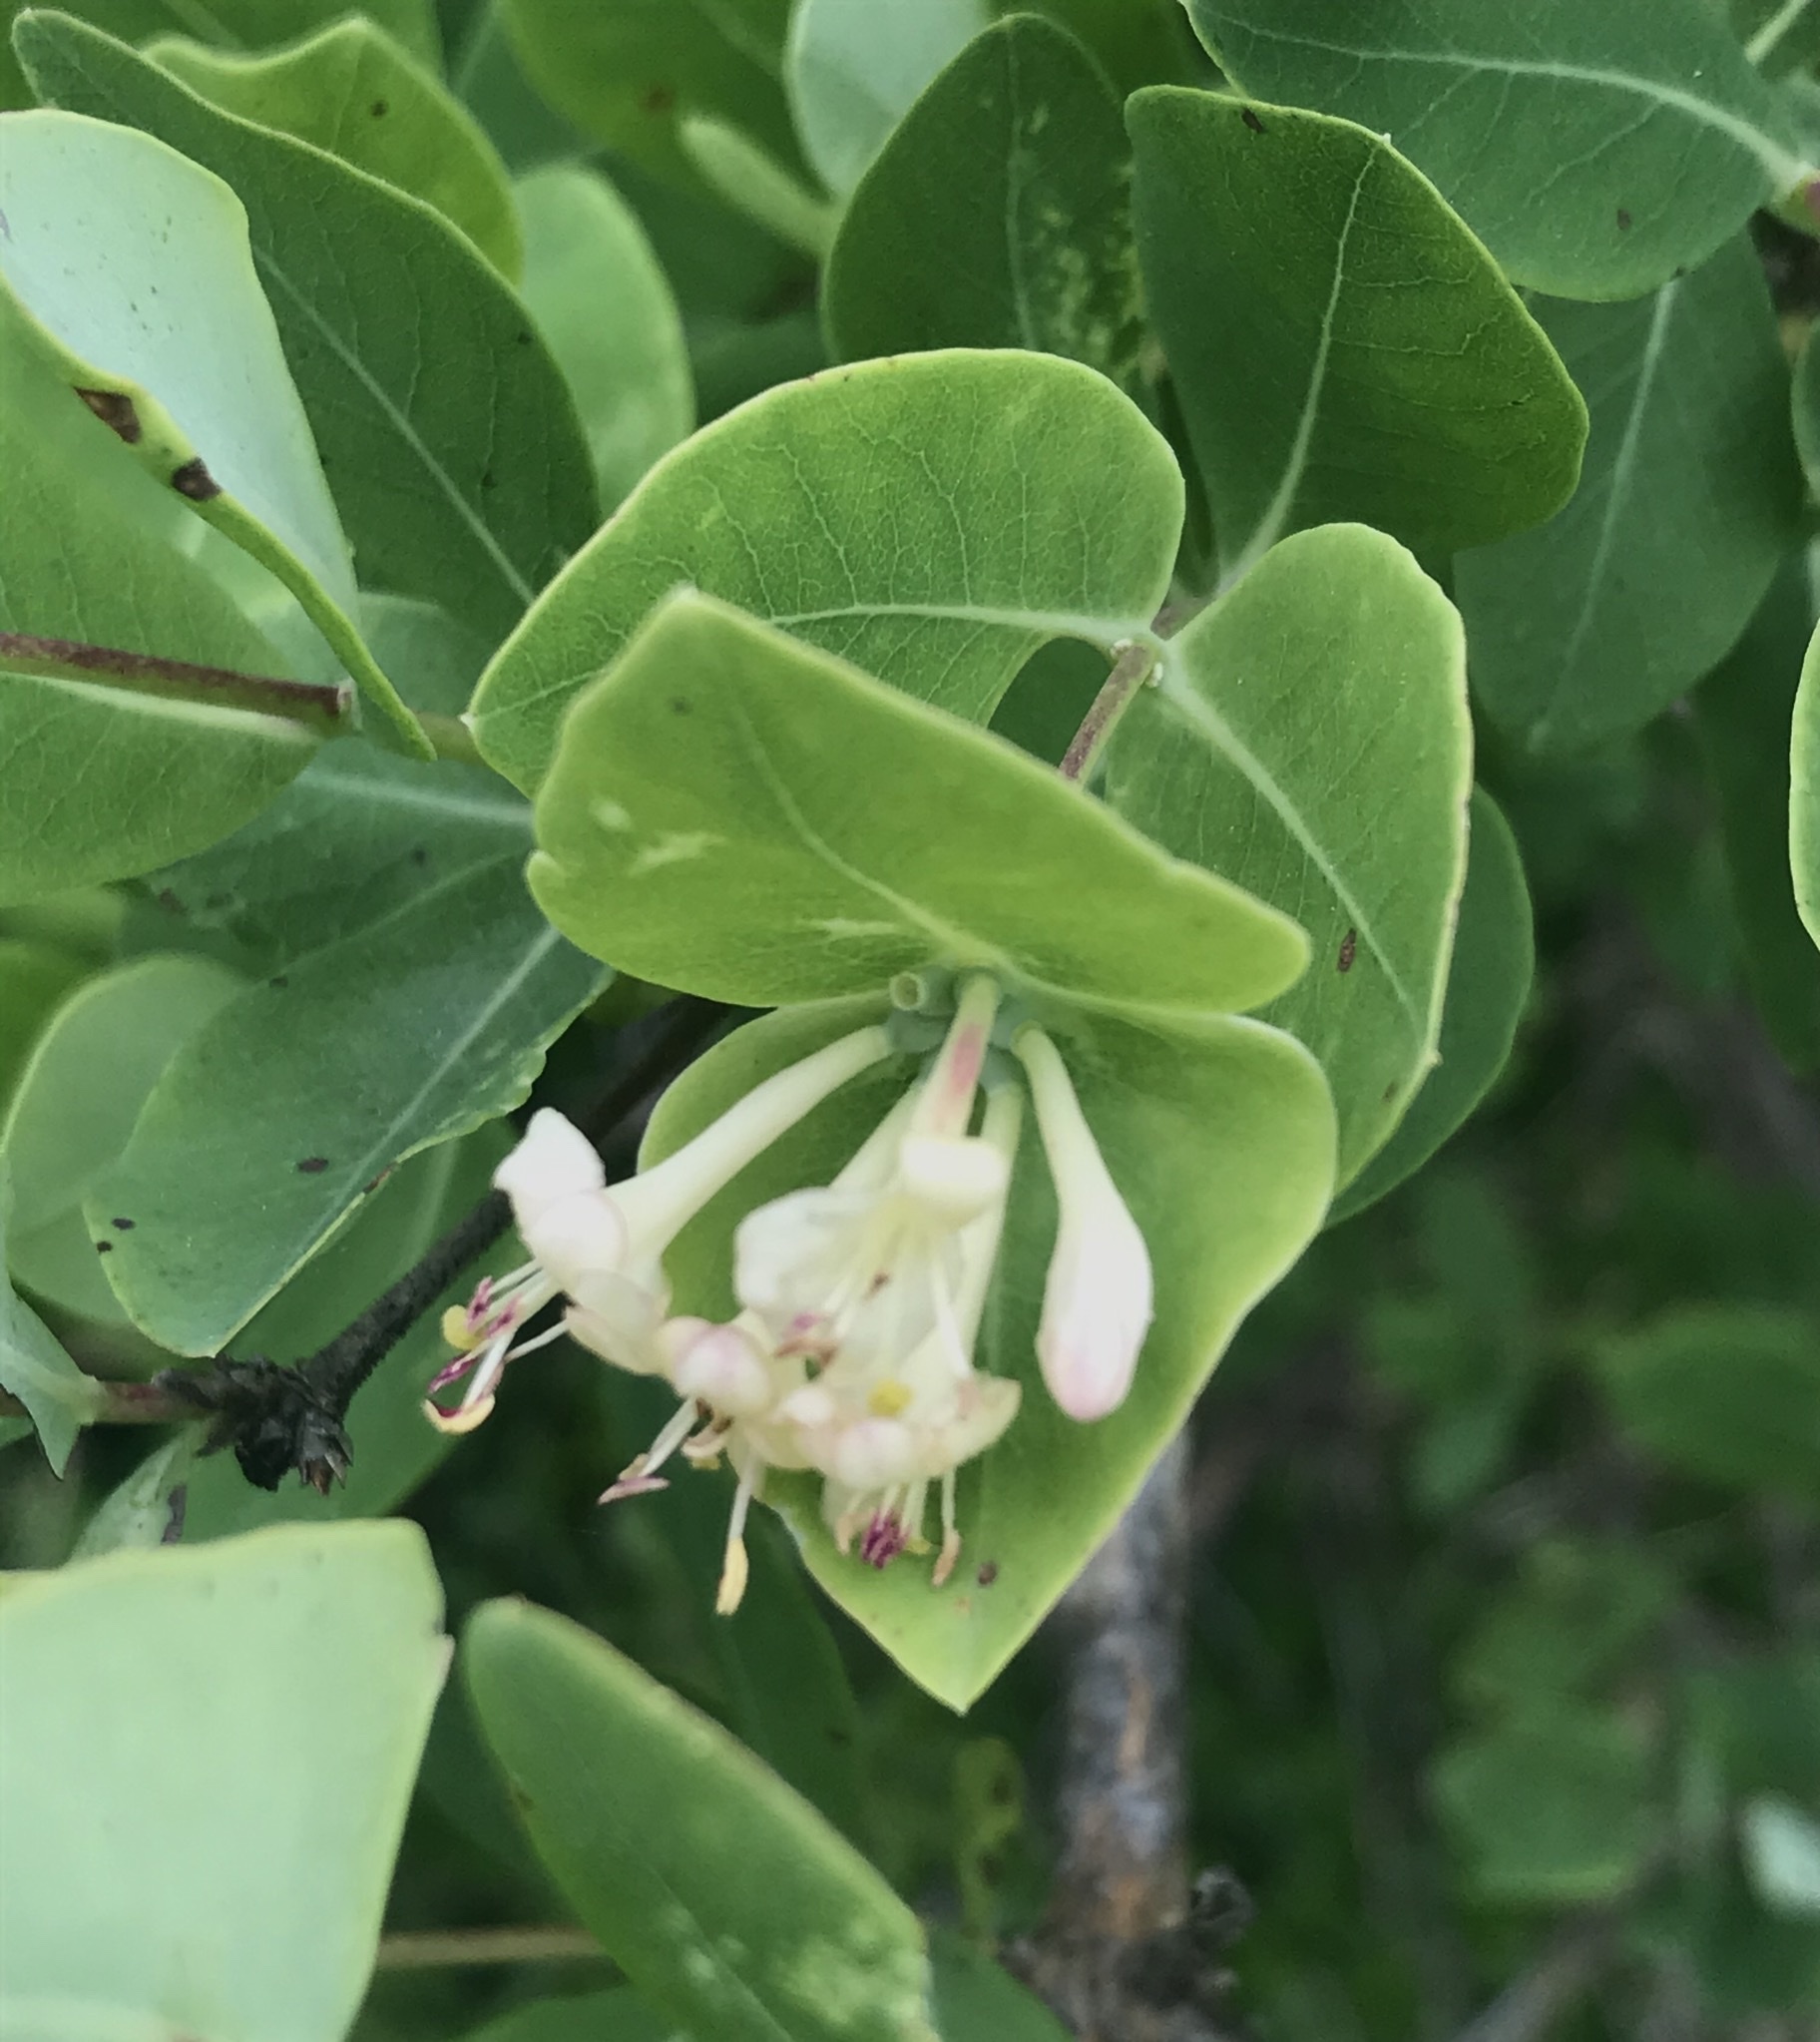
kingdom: Plantae
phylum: Tracheophyta
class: Magnoliopsida
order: Dipsacales
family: Caprifoliaceae
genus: Lonicera
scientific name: Lonicera albiflora
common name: White honeysuckle
